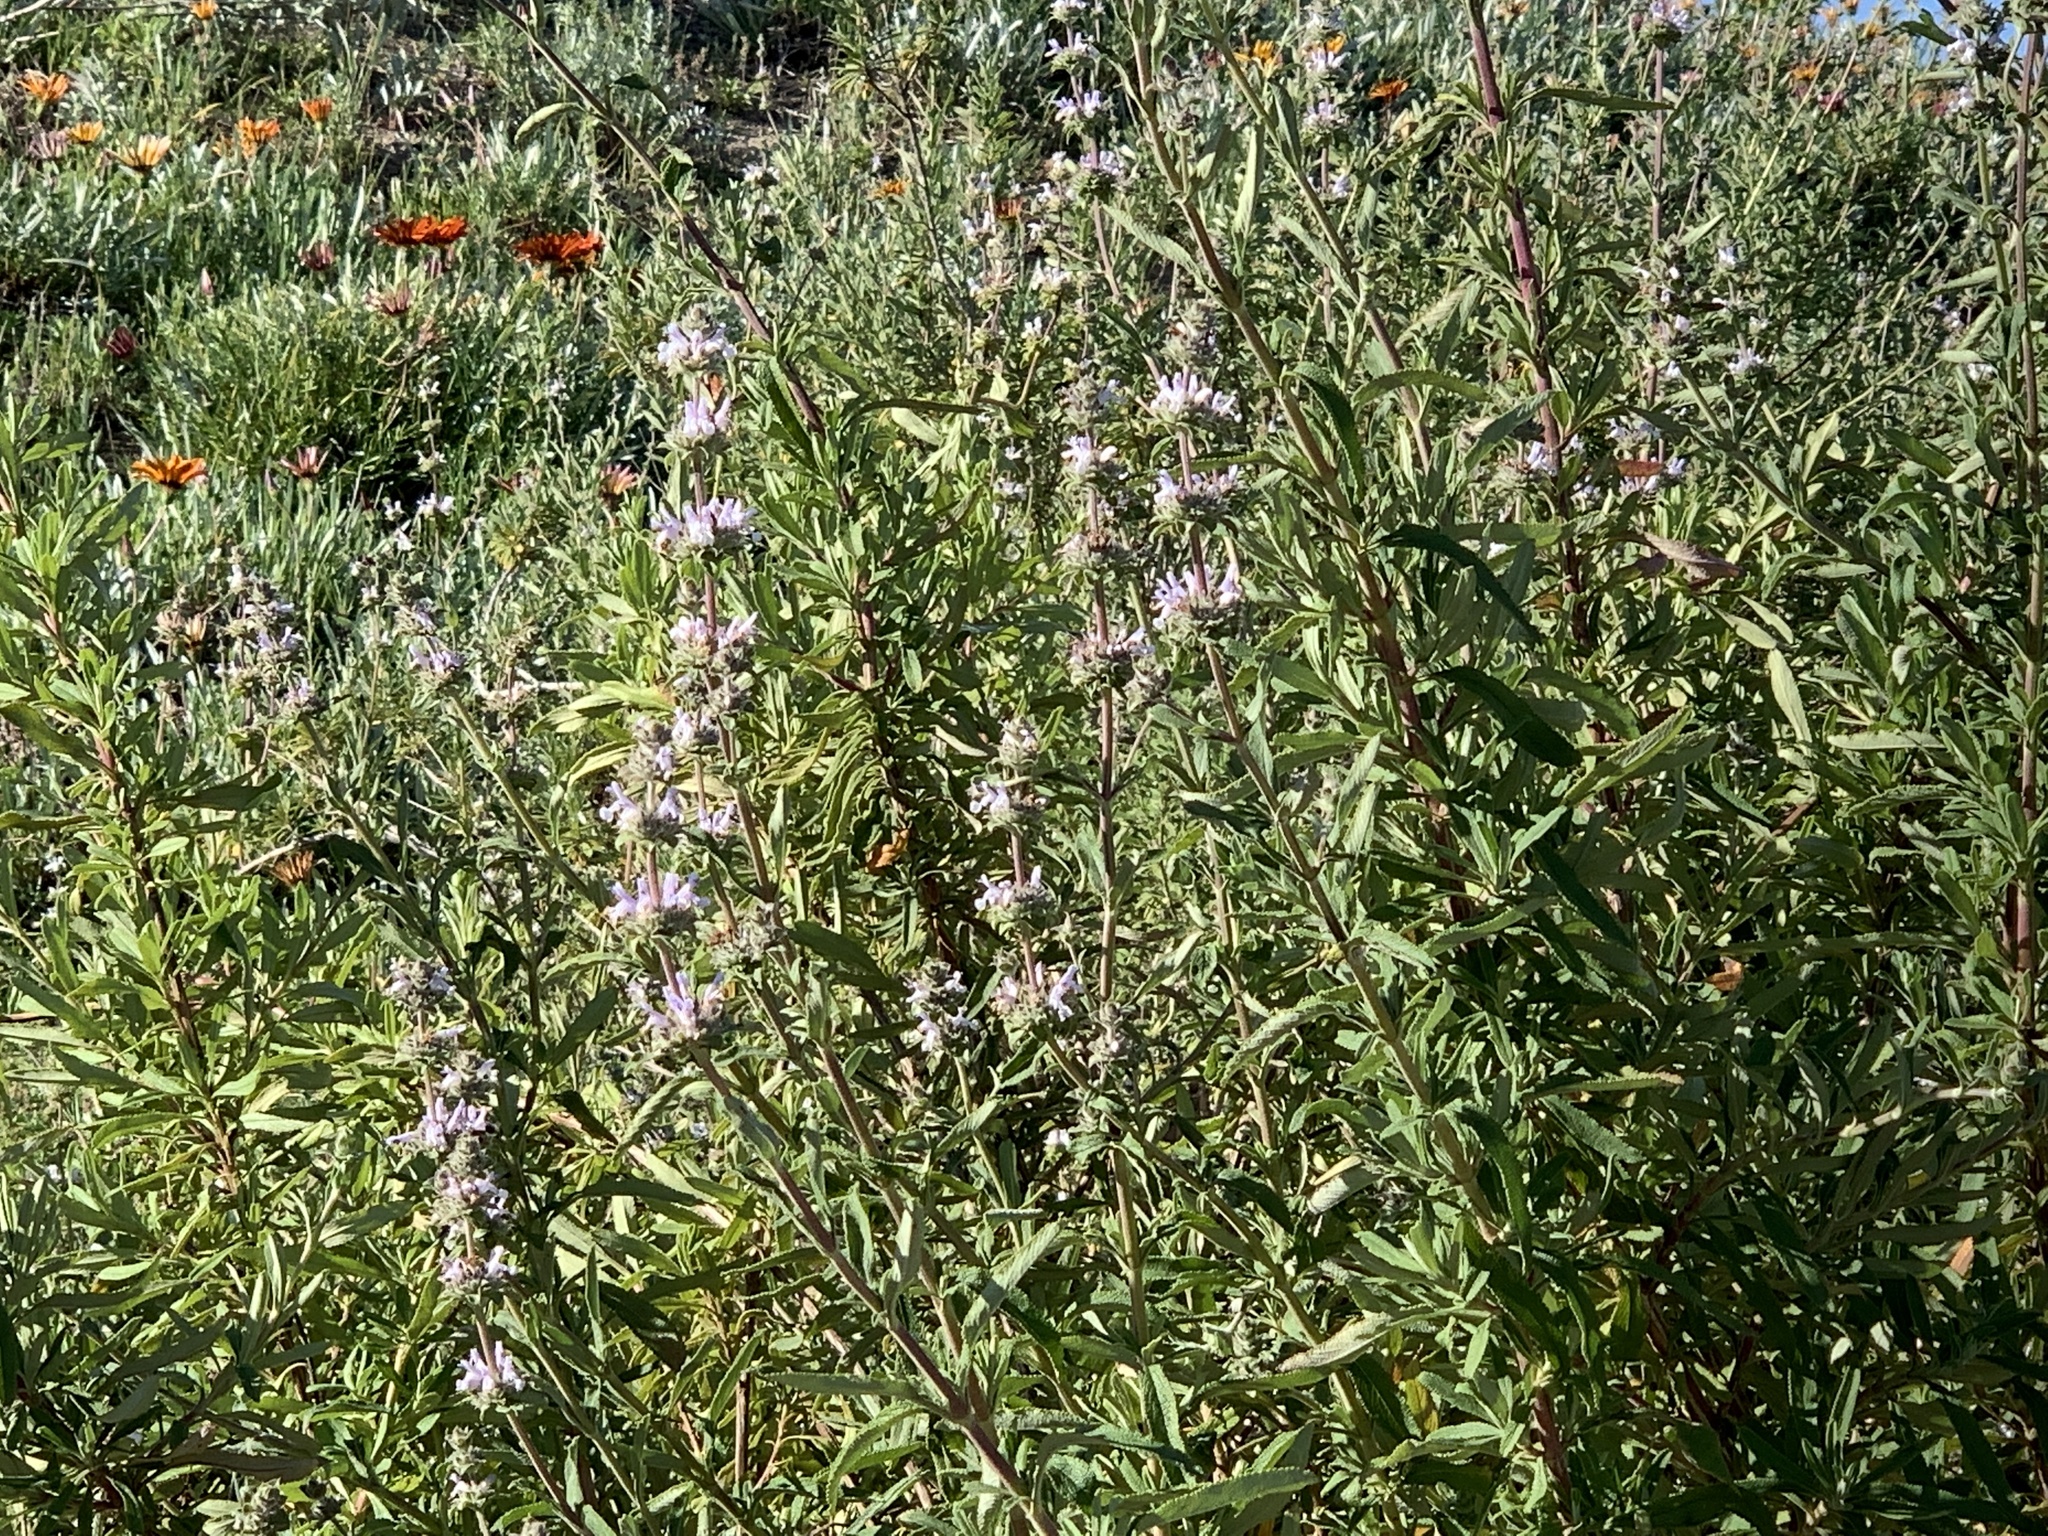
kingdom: Plantae
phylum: Tracheophyta
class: Magnoliopsida
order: Lamiales
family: Lamiaceae
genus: Salvia
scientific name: Salvia mellifera
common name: Black sage
